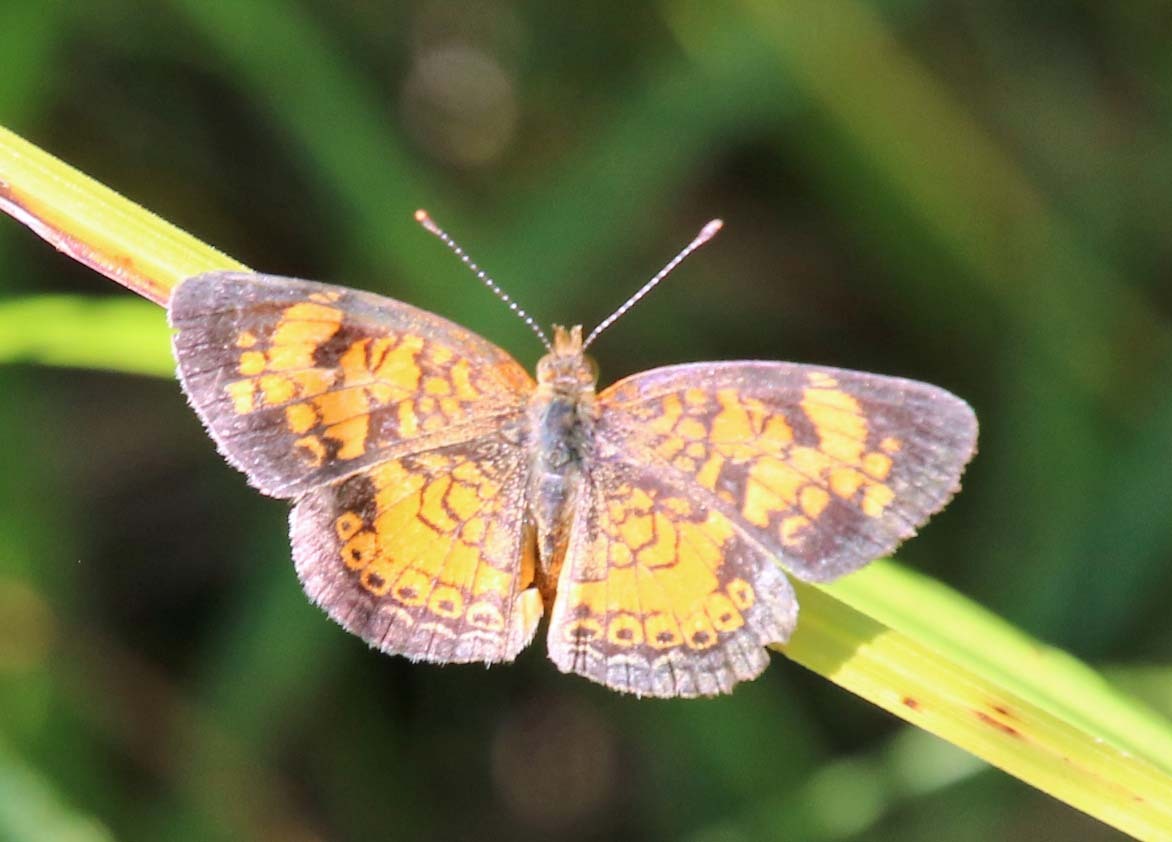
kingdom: Animalia
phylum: Arthropoda
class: Insecta
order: Lepidoptera
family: Nymphalidae
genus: Phyciodes
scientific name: Phyciodes tharos
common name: Pearl crescent
